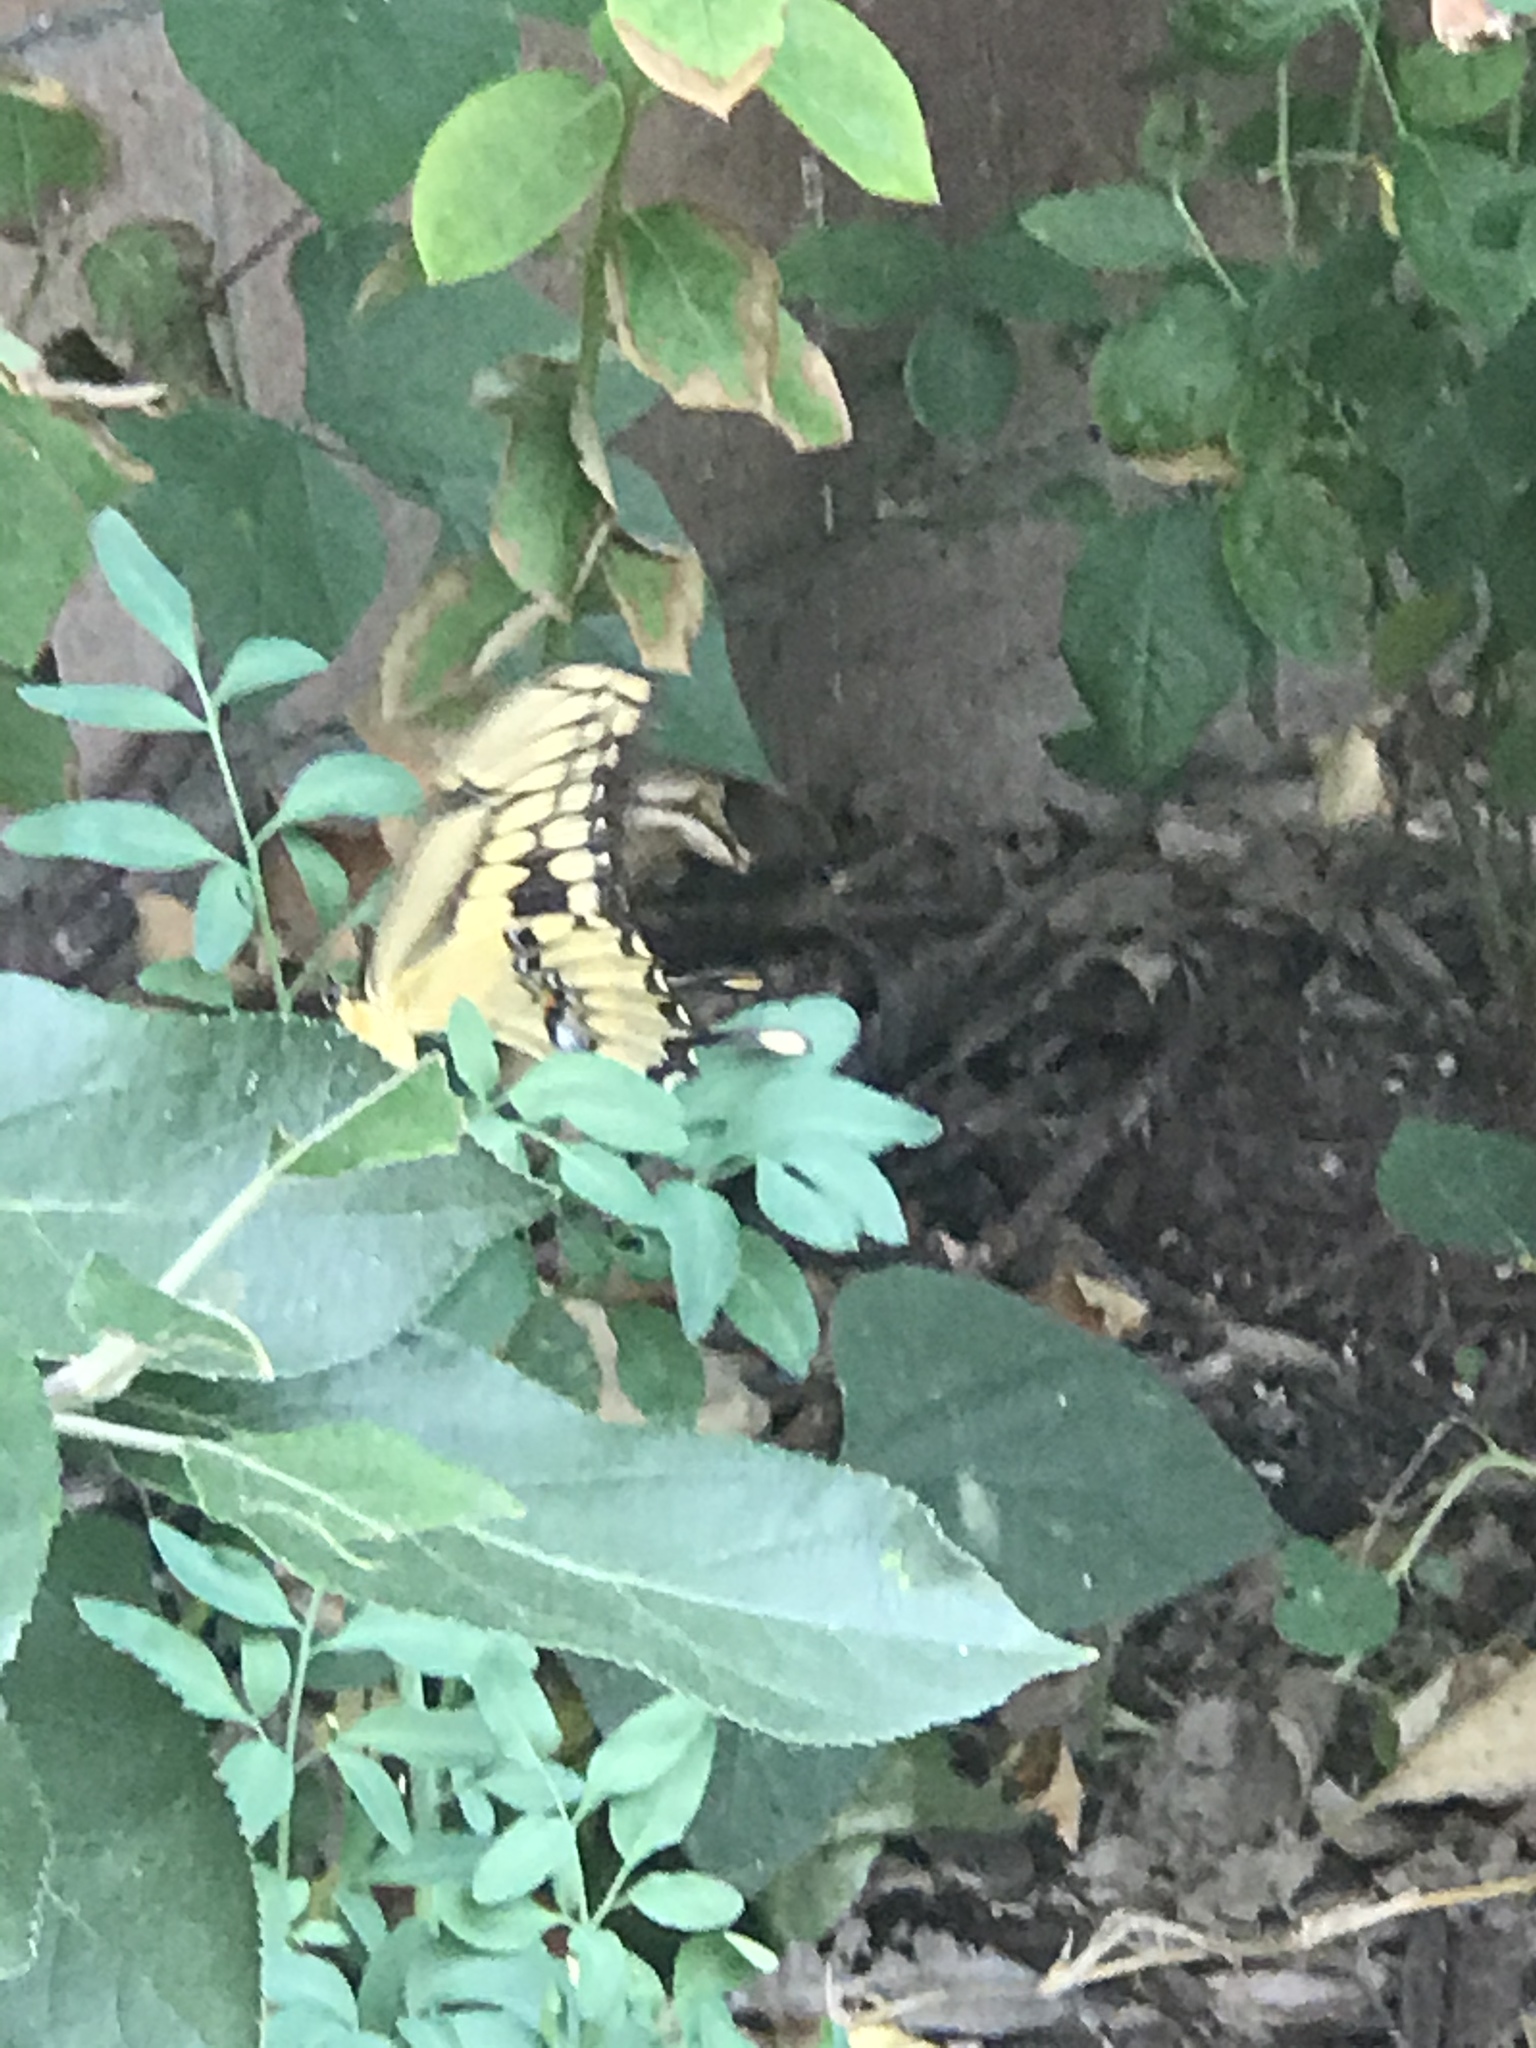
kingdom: Animalia
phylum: Arthropoda
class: Insecta
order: Lepidoptera
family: Papilionidae
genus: Papilio
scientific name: Papilio rumiko
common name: Western giant swallowtail
